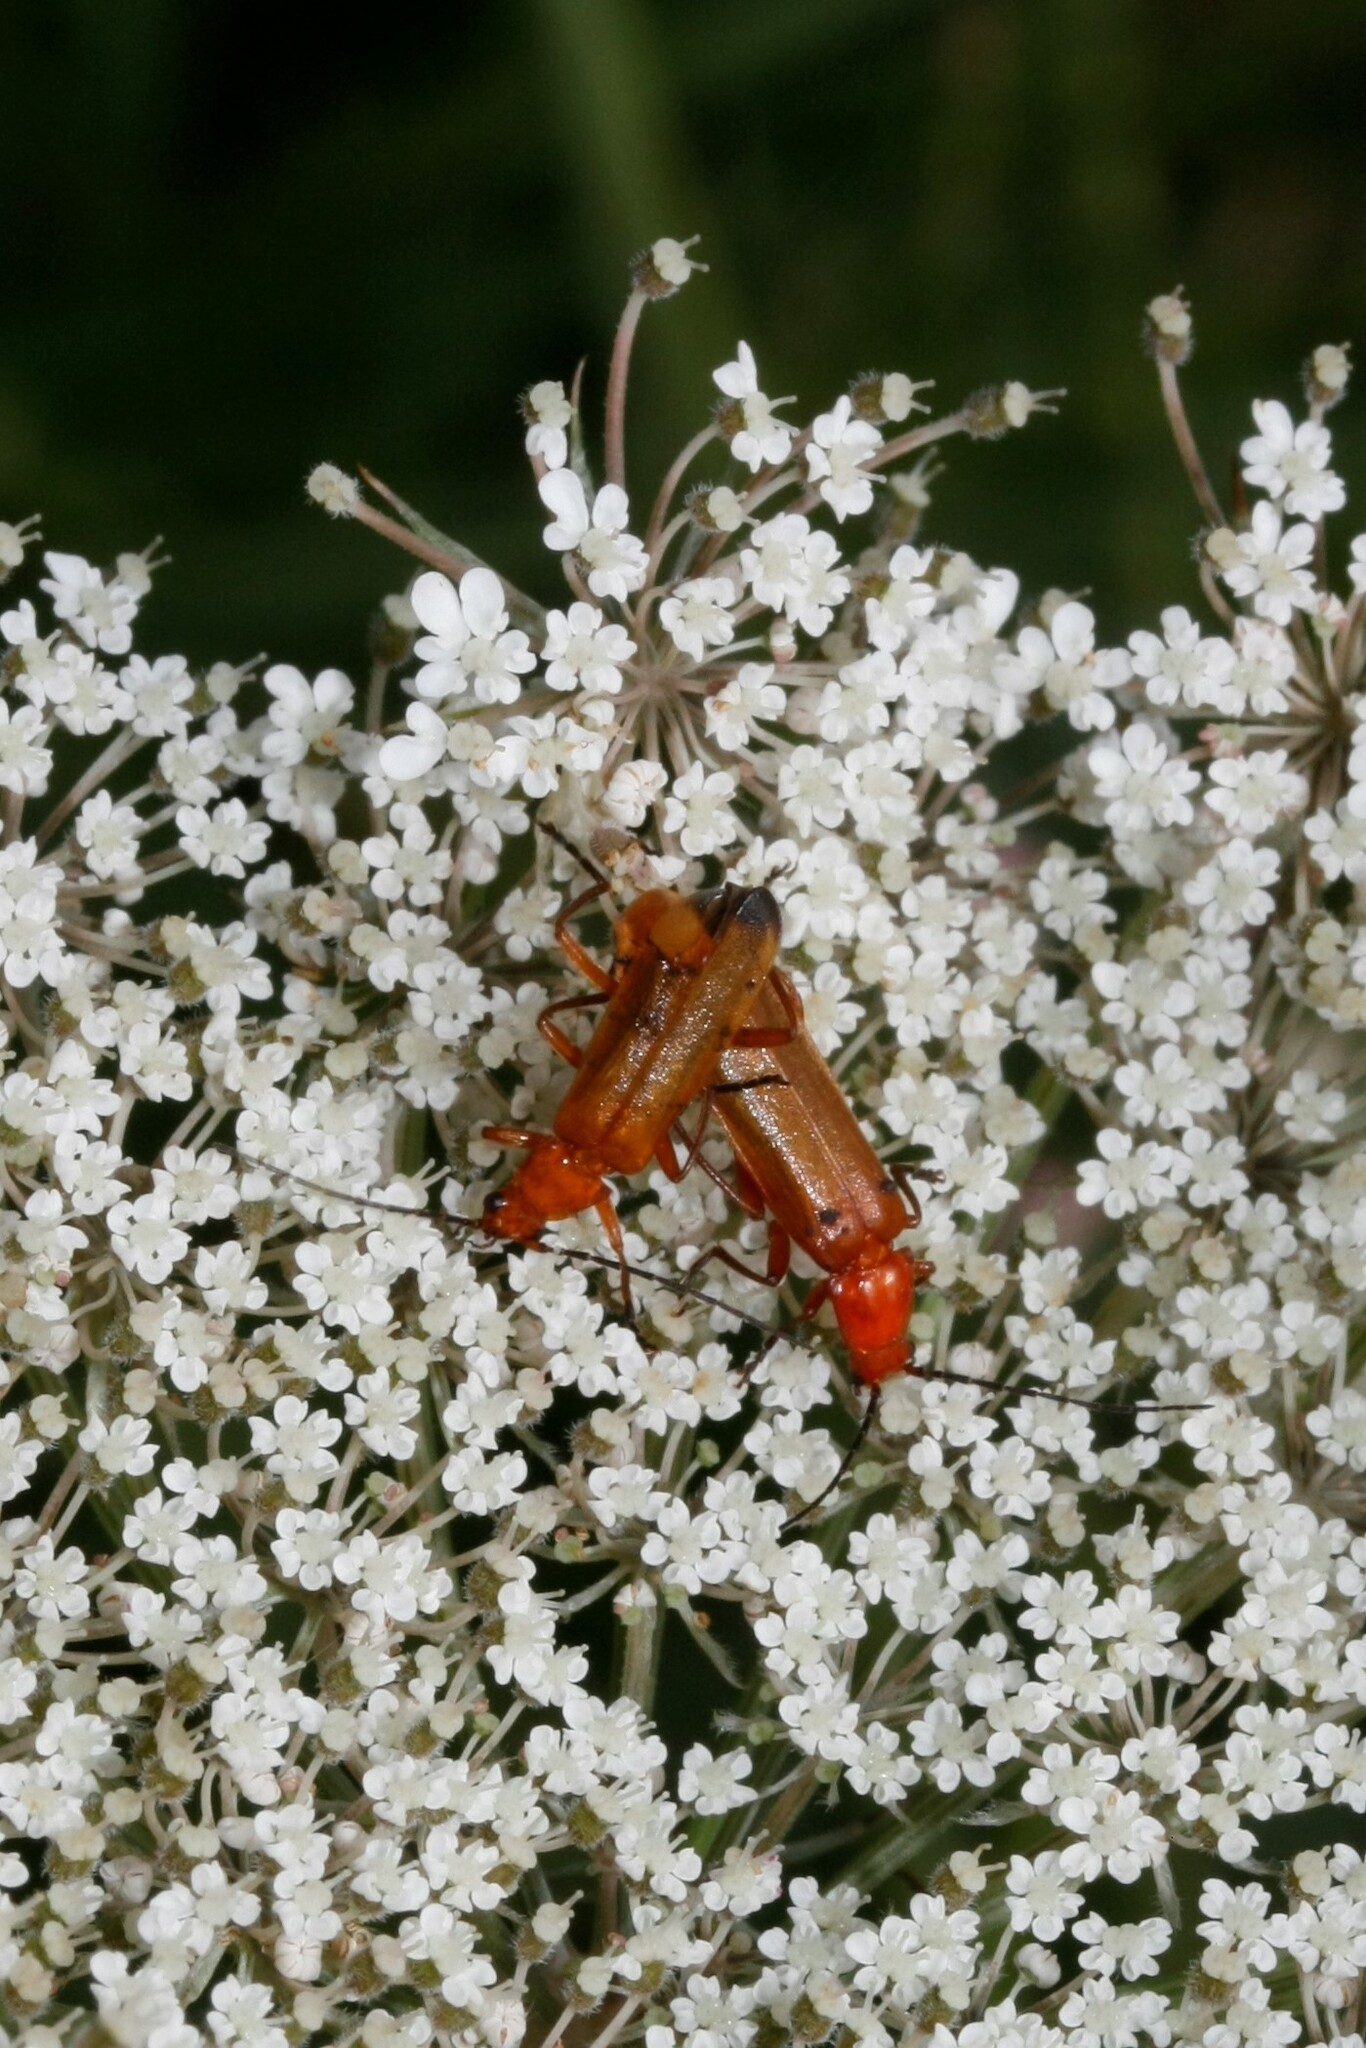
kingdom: Animalia
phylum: Arthropoda
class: Insecta
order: Coleoptera
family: Cantharidae
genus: Rhagonycha
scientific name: Rhagonycha fulva
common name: Common red soldier beetle
